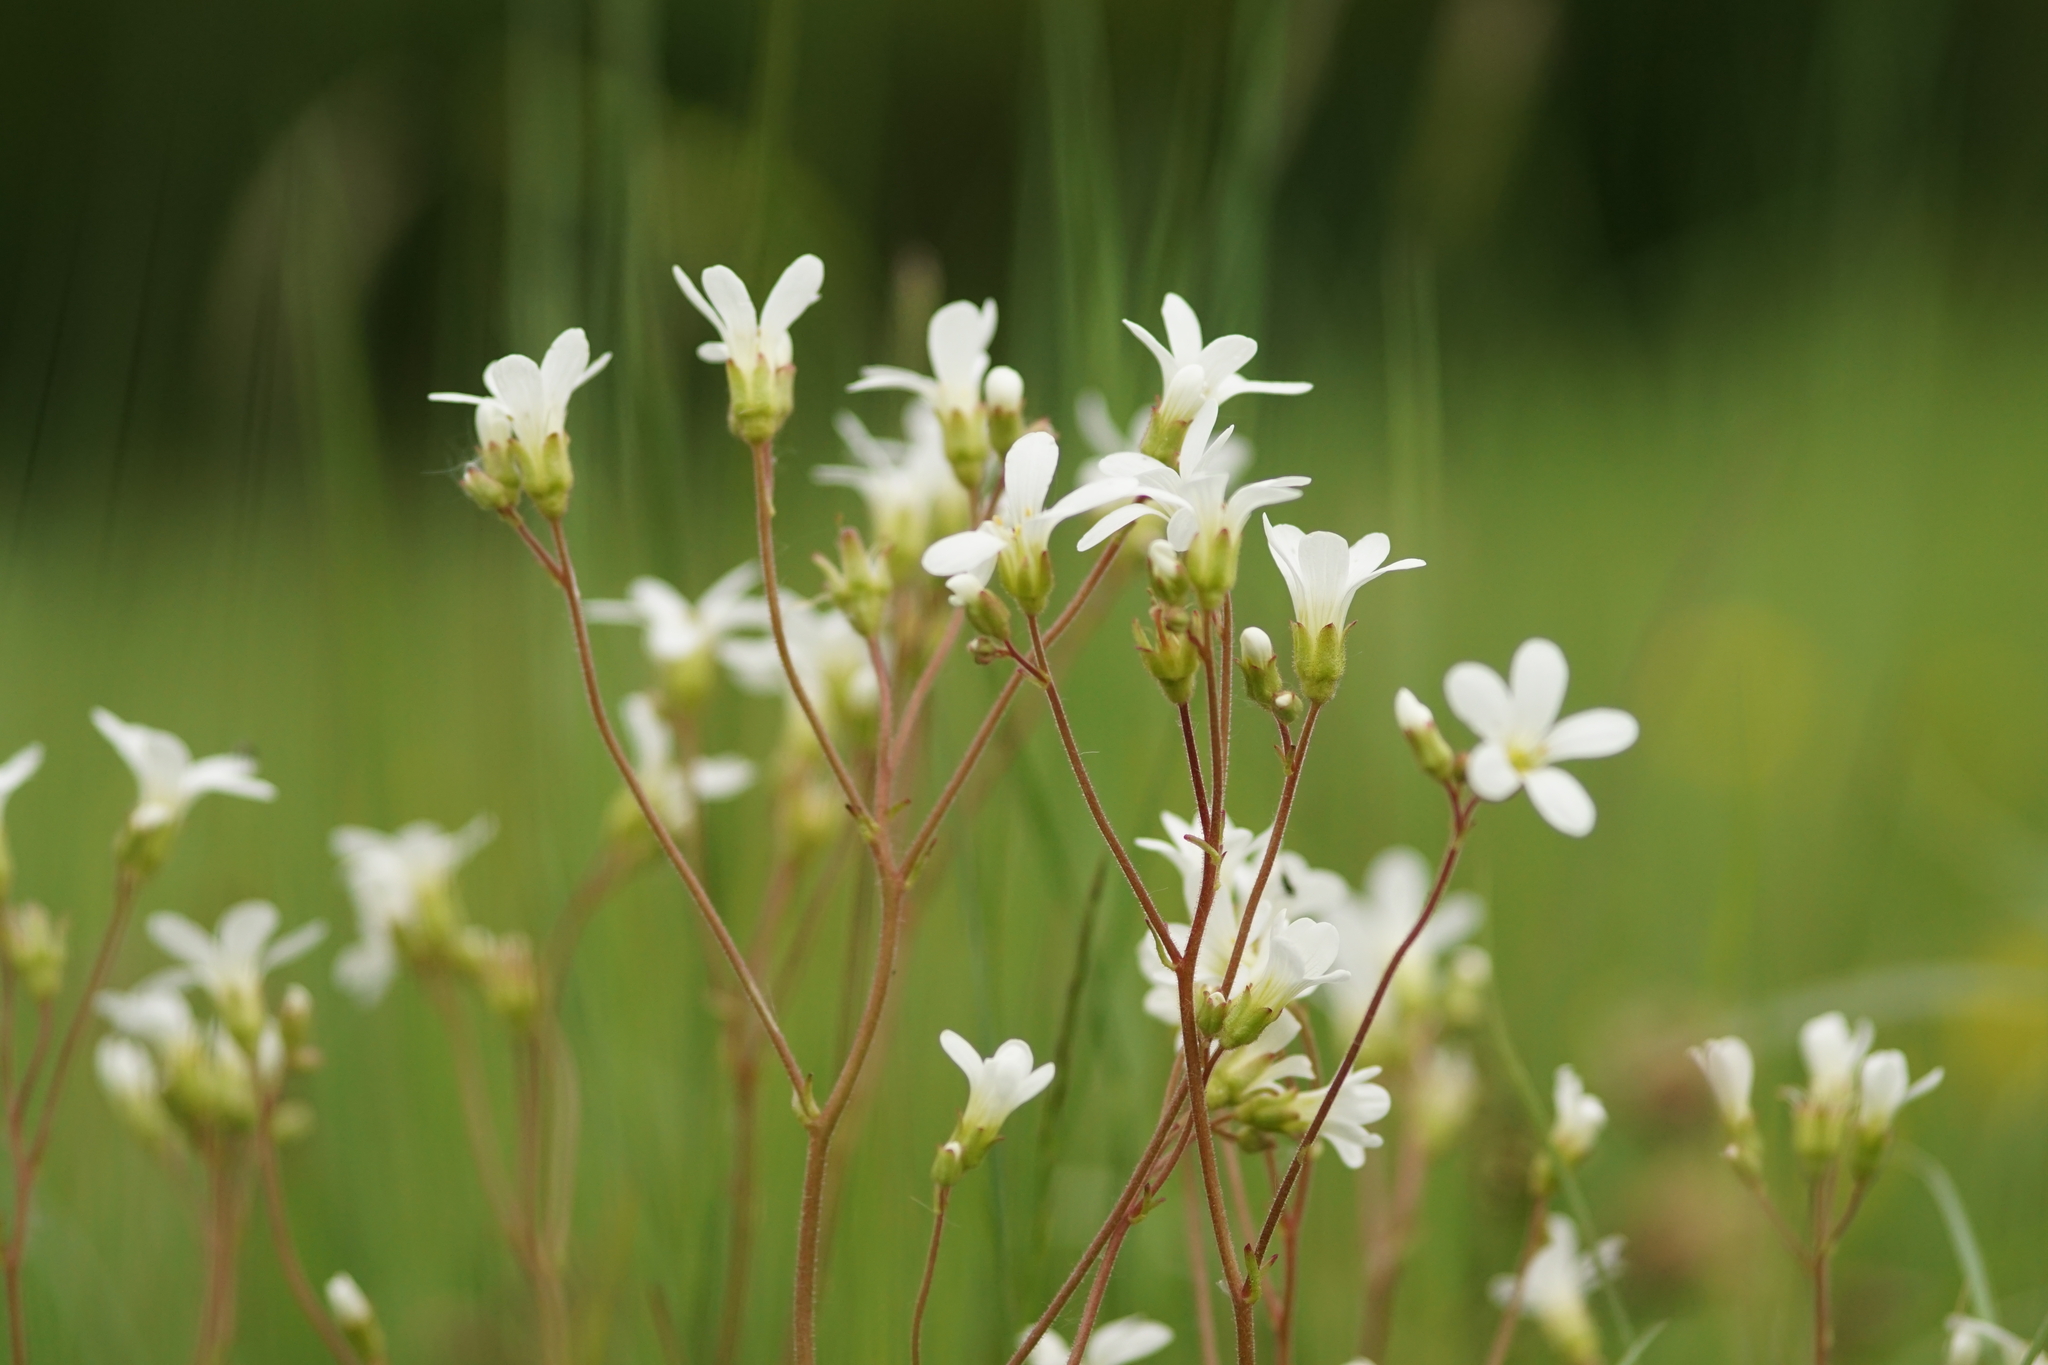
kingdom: Plantae
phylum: Tracheophyta
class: Magnoliopsida
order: Saxifragales
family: Saxifragaceae
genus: Saxifraga
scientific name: Saxifraga granulata
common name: Meadow saxifrage
